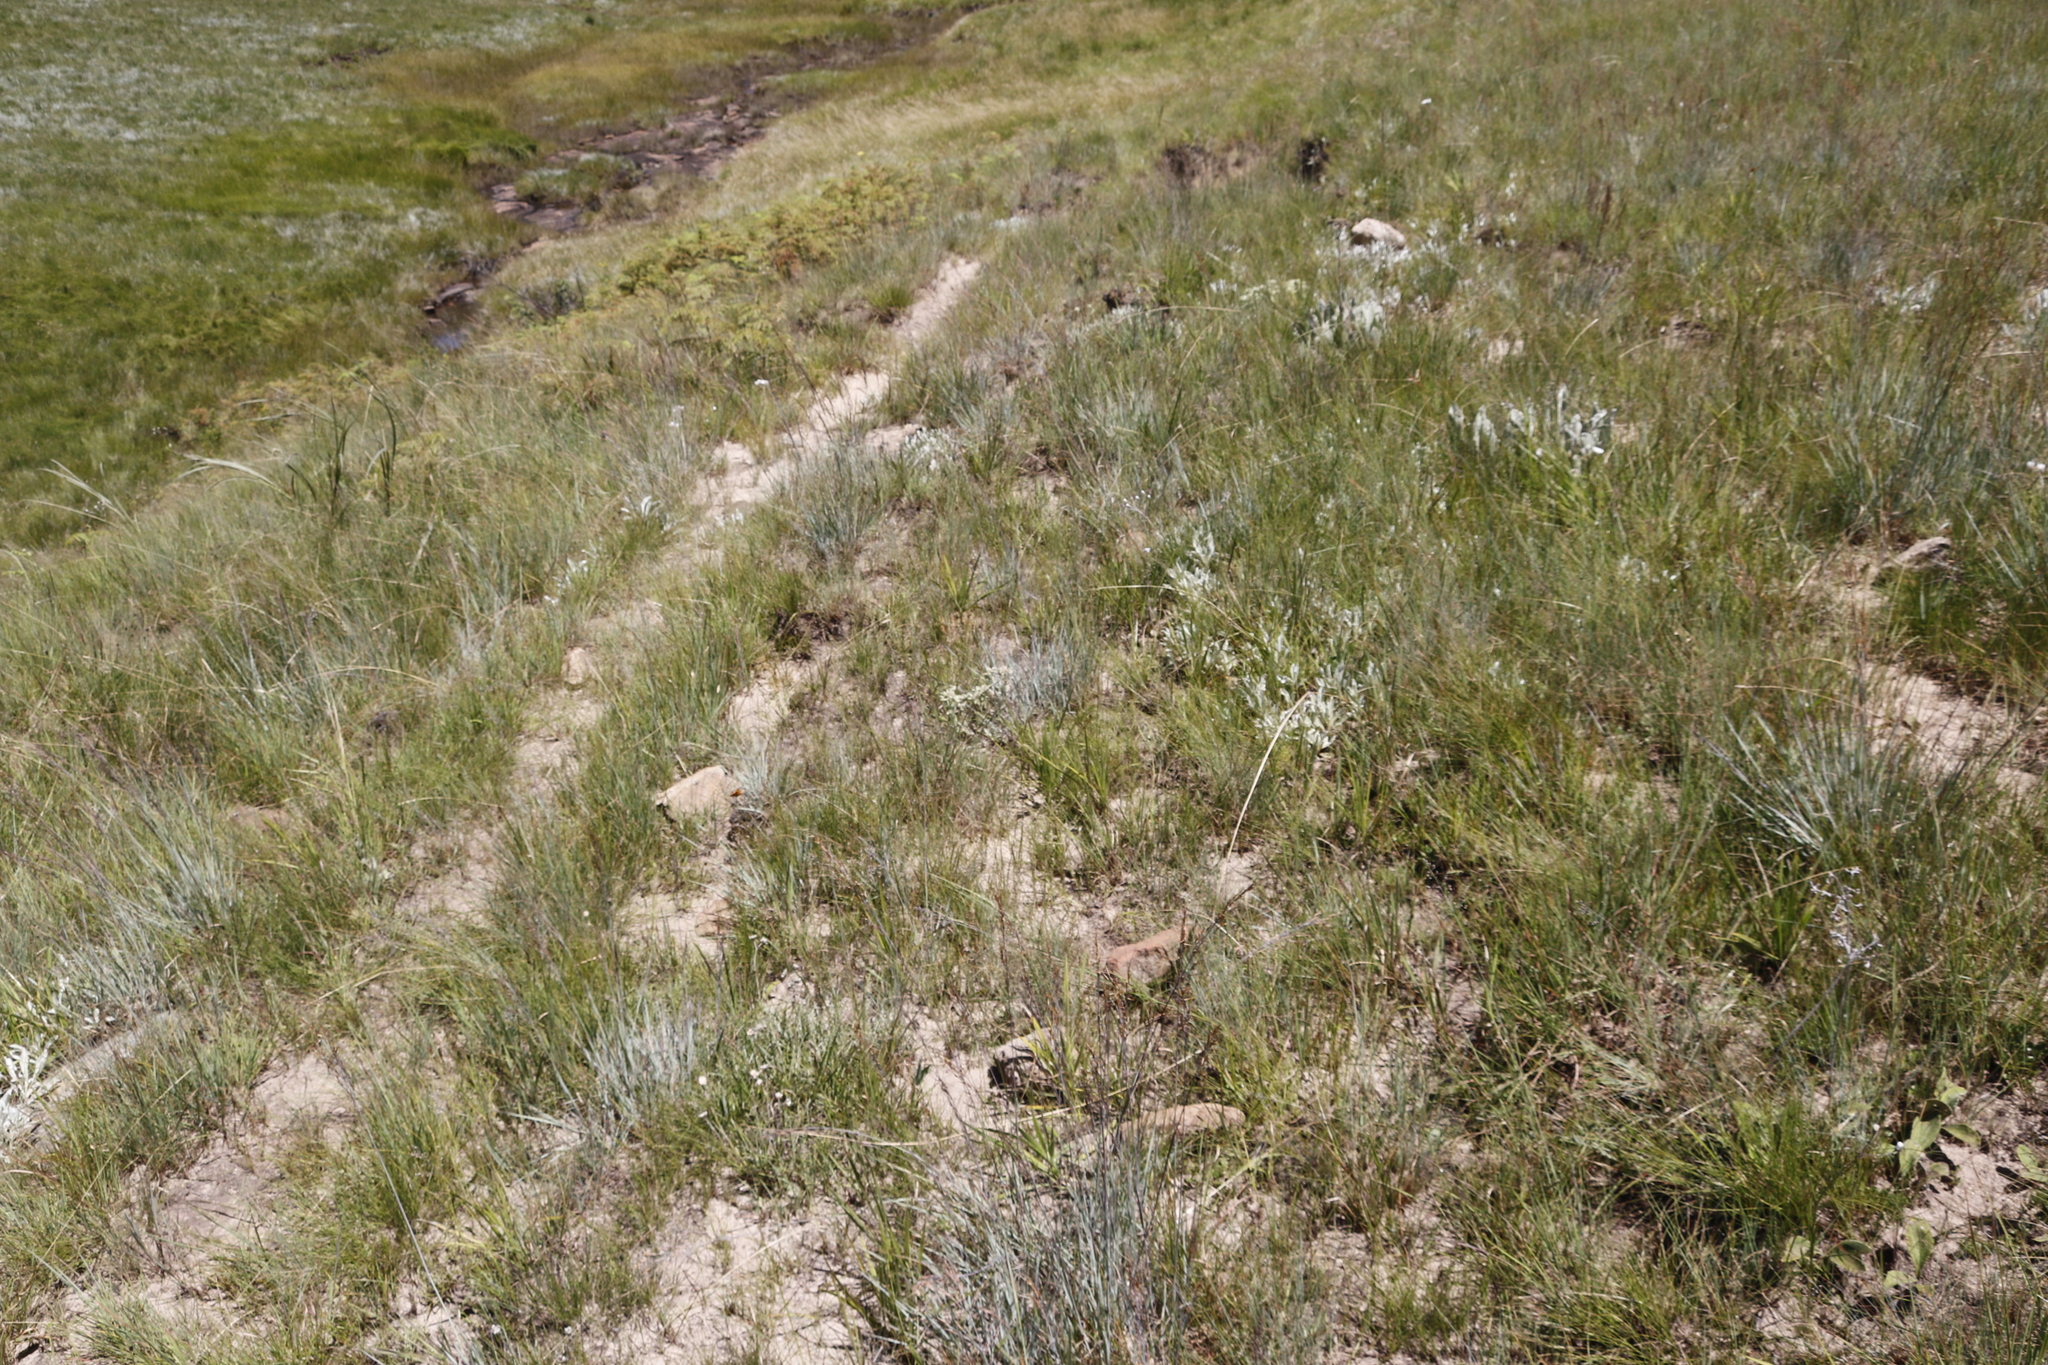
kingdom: Plantae
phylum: Tracheophyta
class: Liliopsida
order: Poales
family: Poaceae
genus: Loudetia
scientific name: Loudetia simplex
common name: Common russet grass
